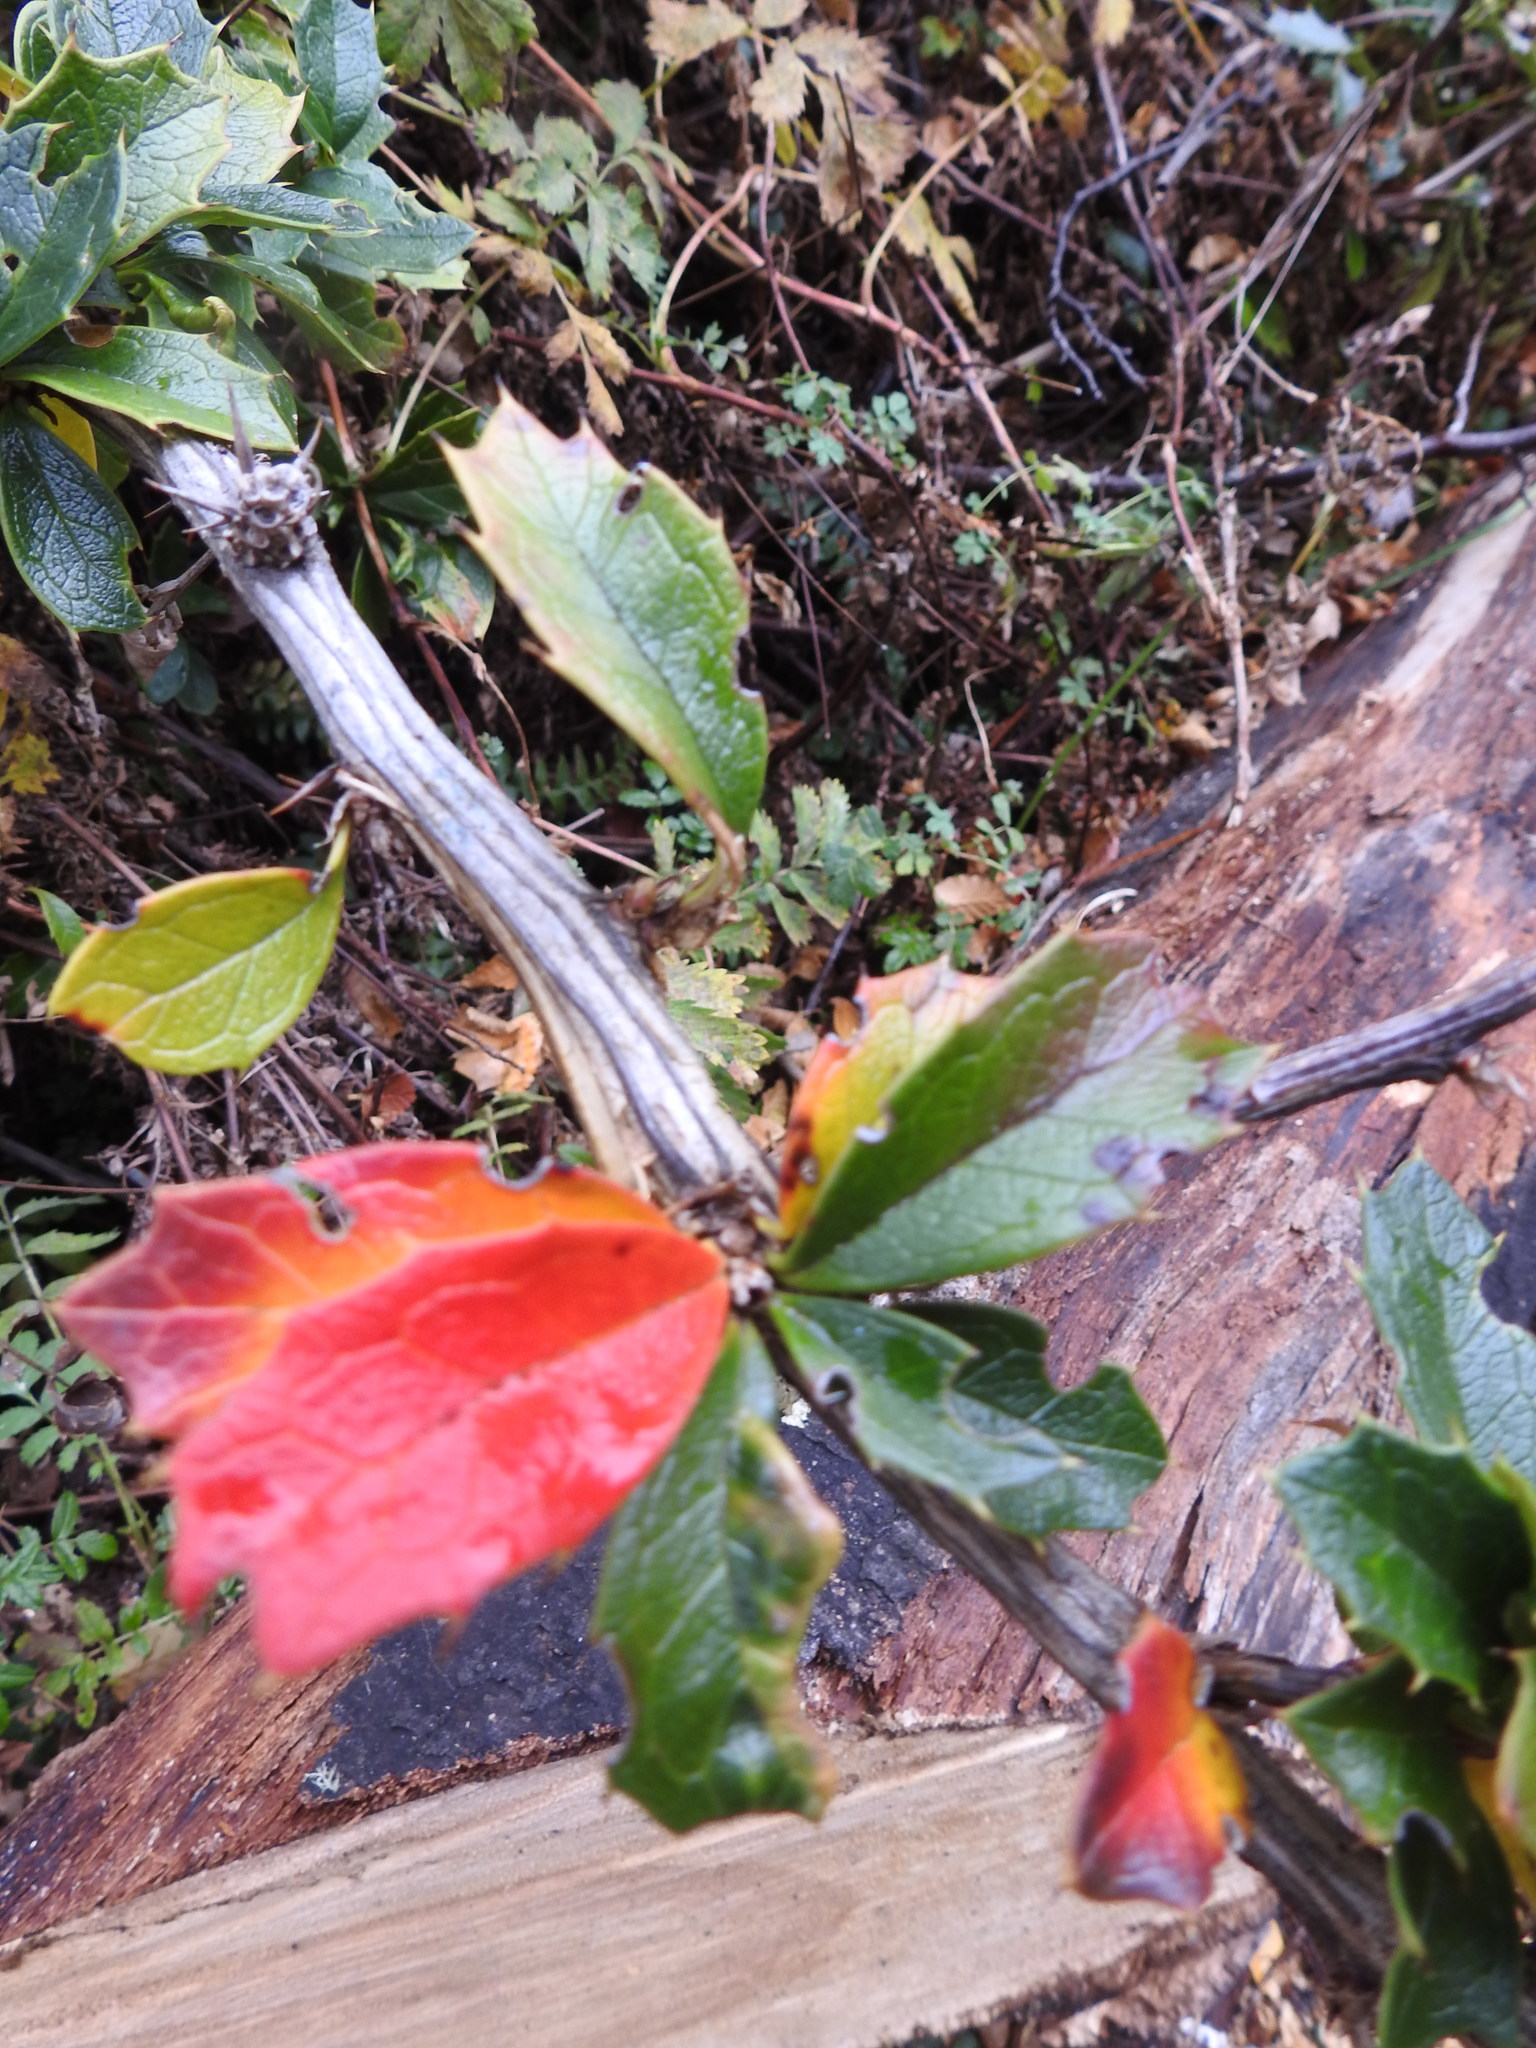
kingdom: Plantae
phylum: Tracheophyta
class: Magnoliopsida
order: Ranunculales
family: Berberidaceae
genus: Berberis
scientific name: Berberis ilicifolia
